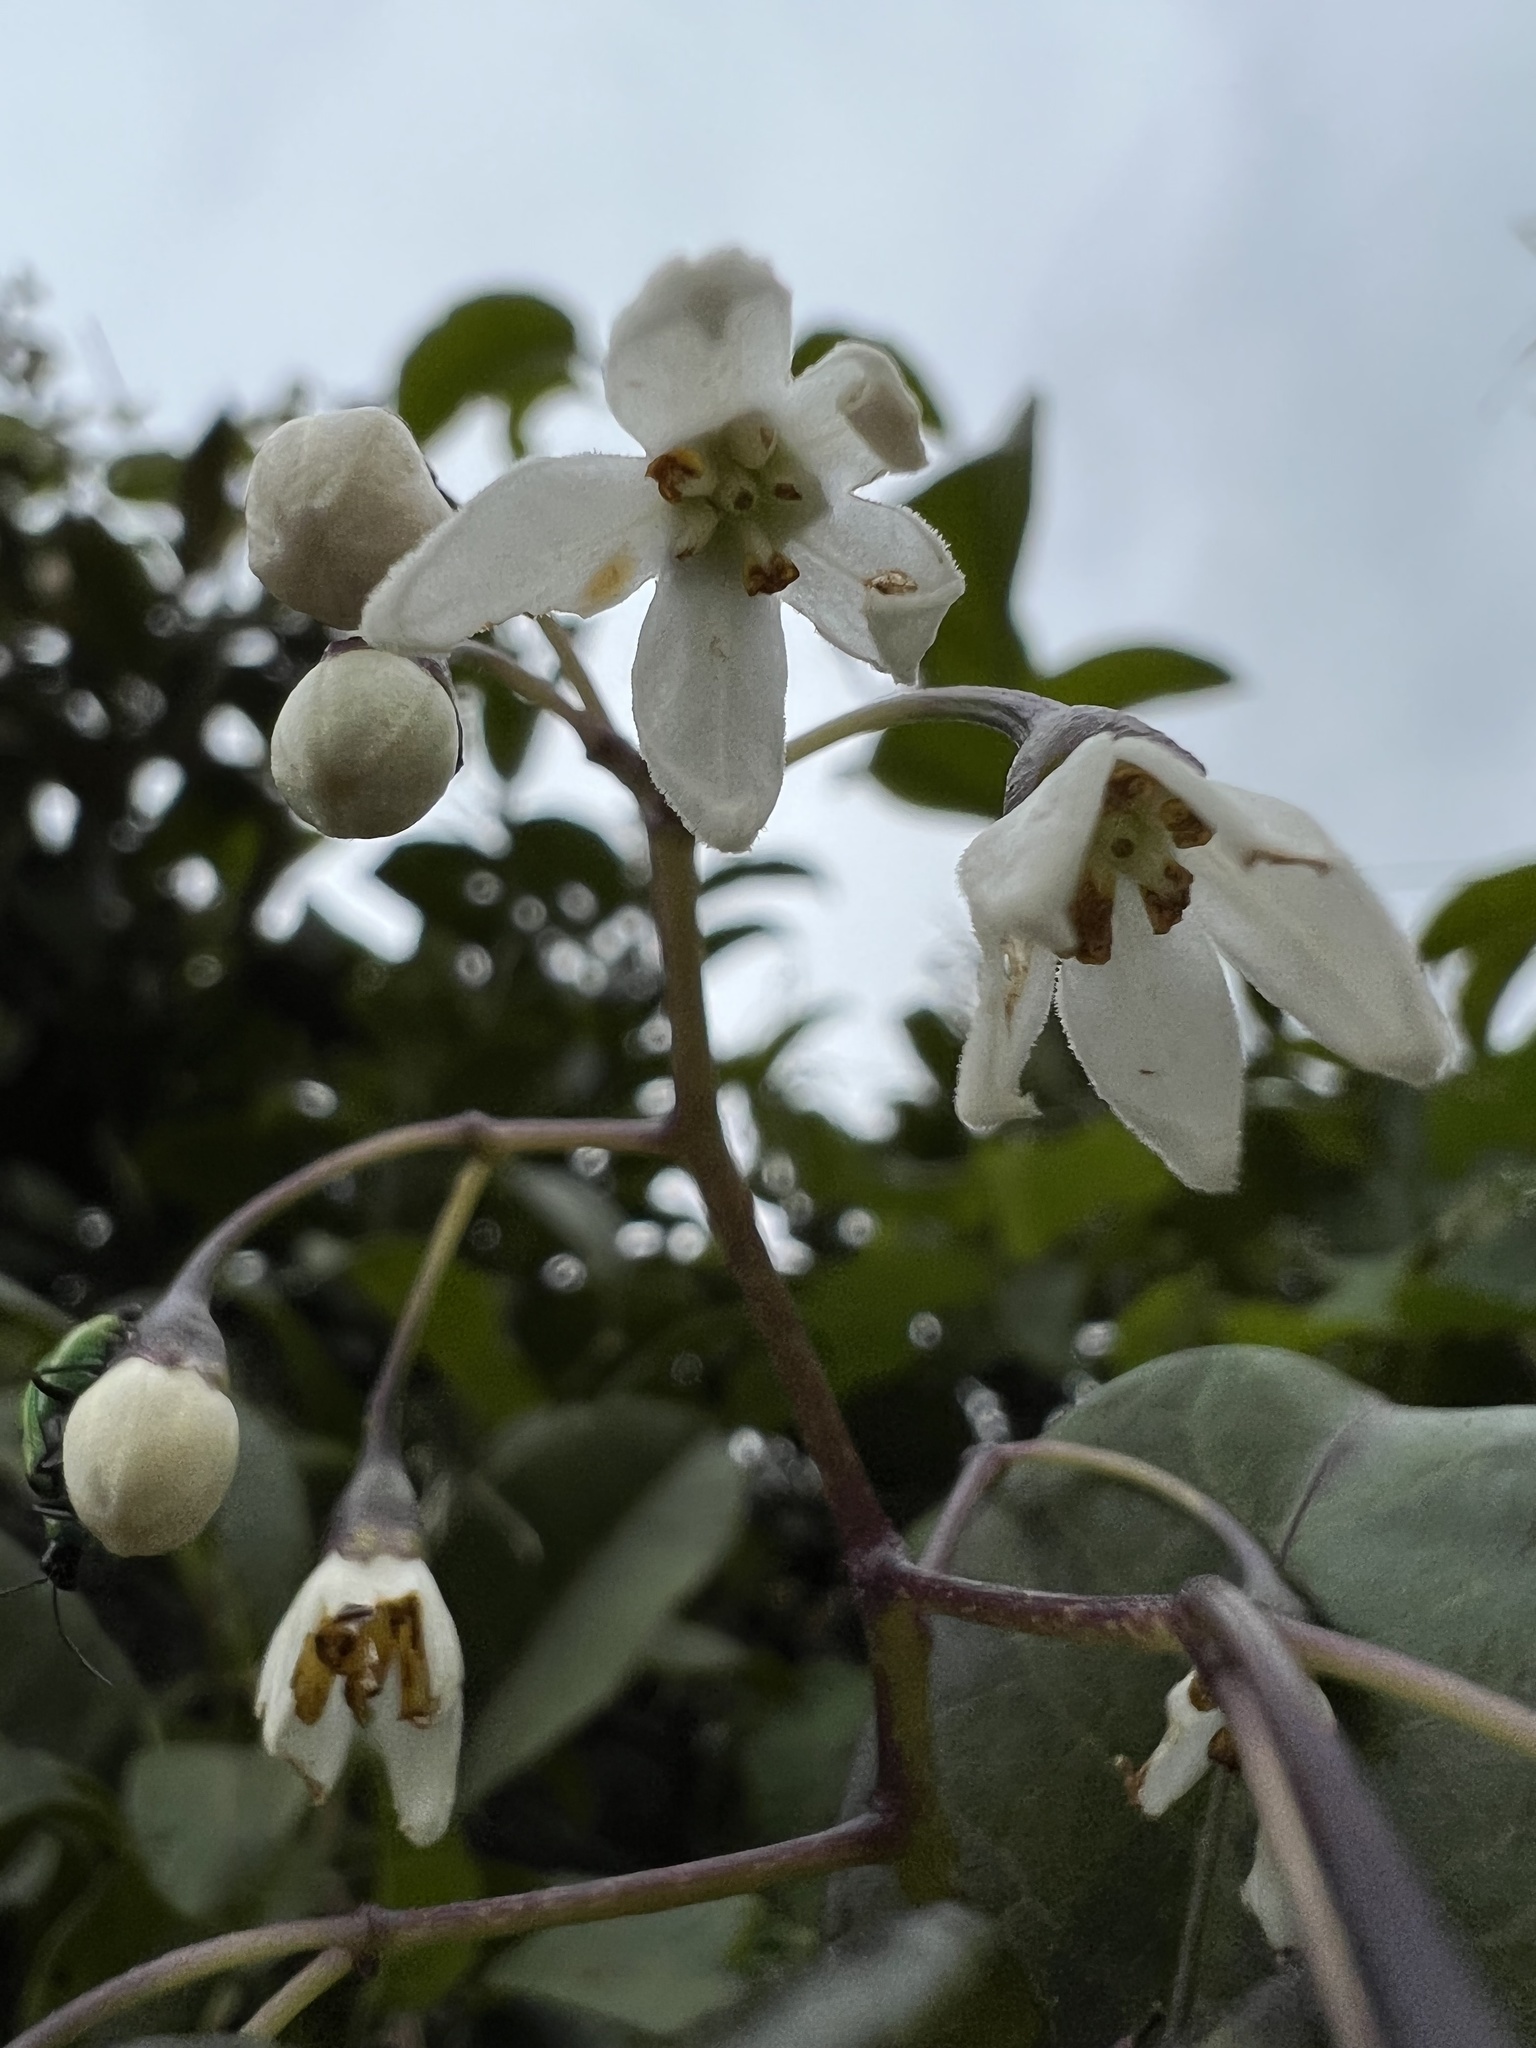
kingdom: Plantae
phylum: Tracheophyta
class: Magnoliopsida
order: Solanales
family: Solanaceae
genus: Solanum
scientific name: Solanum luculentum
